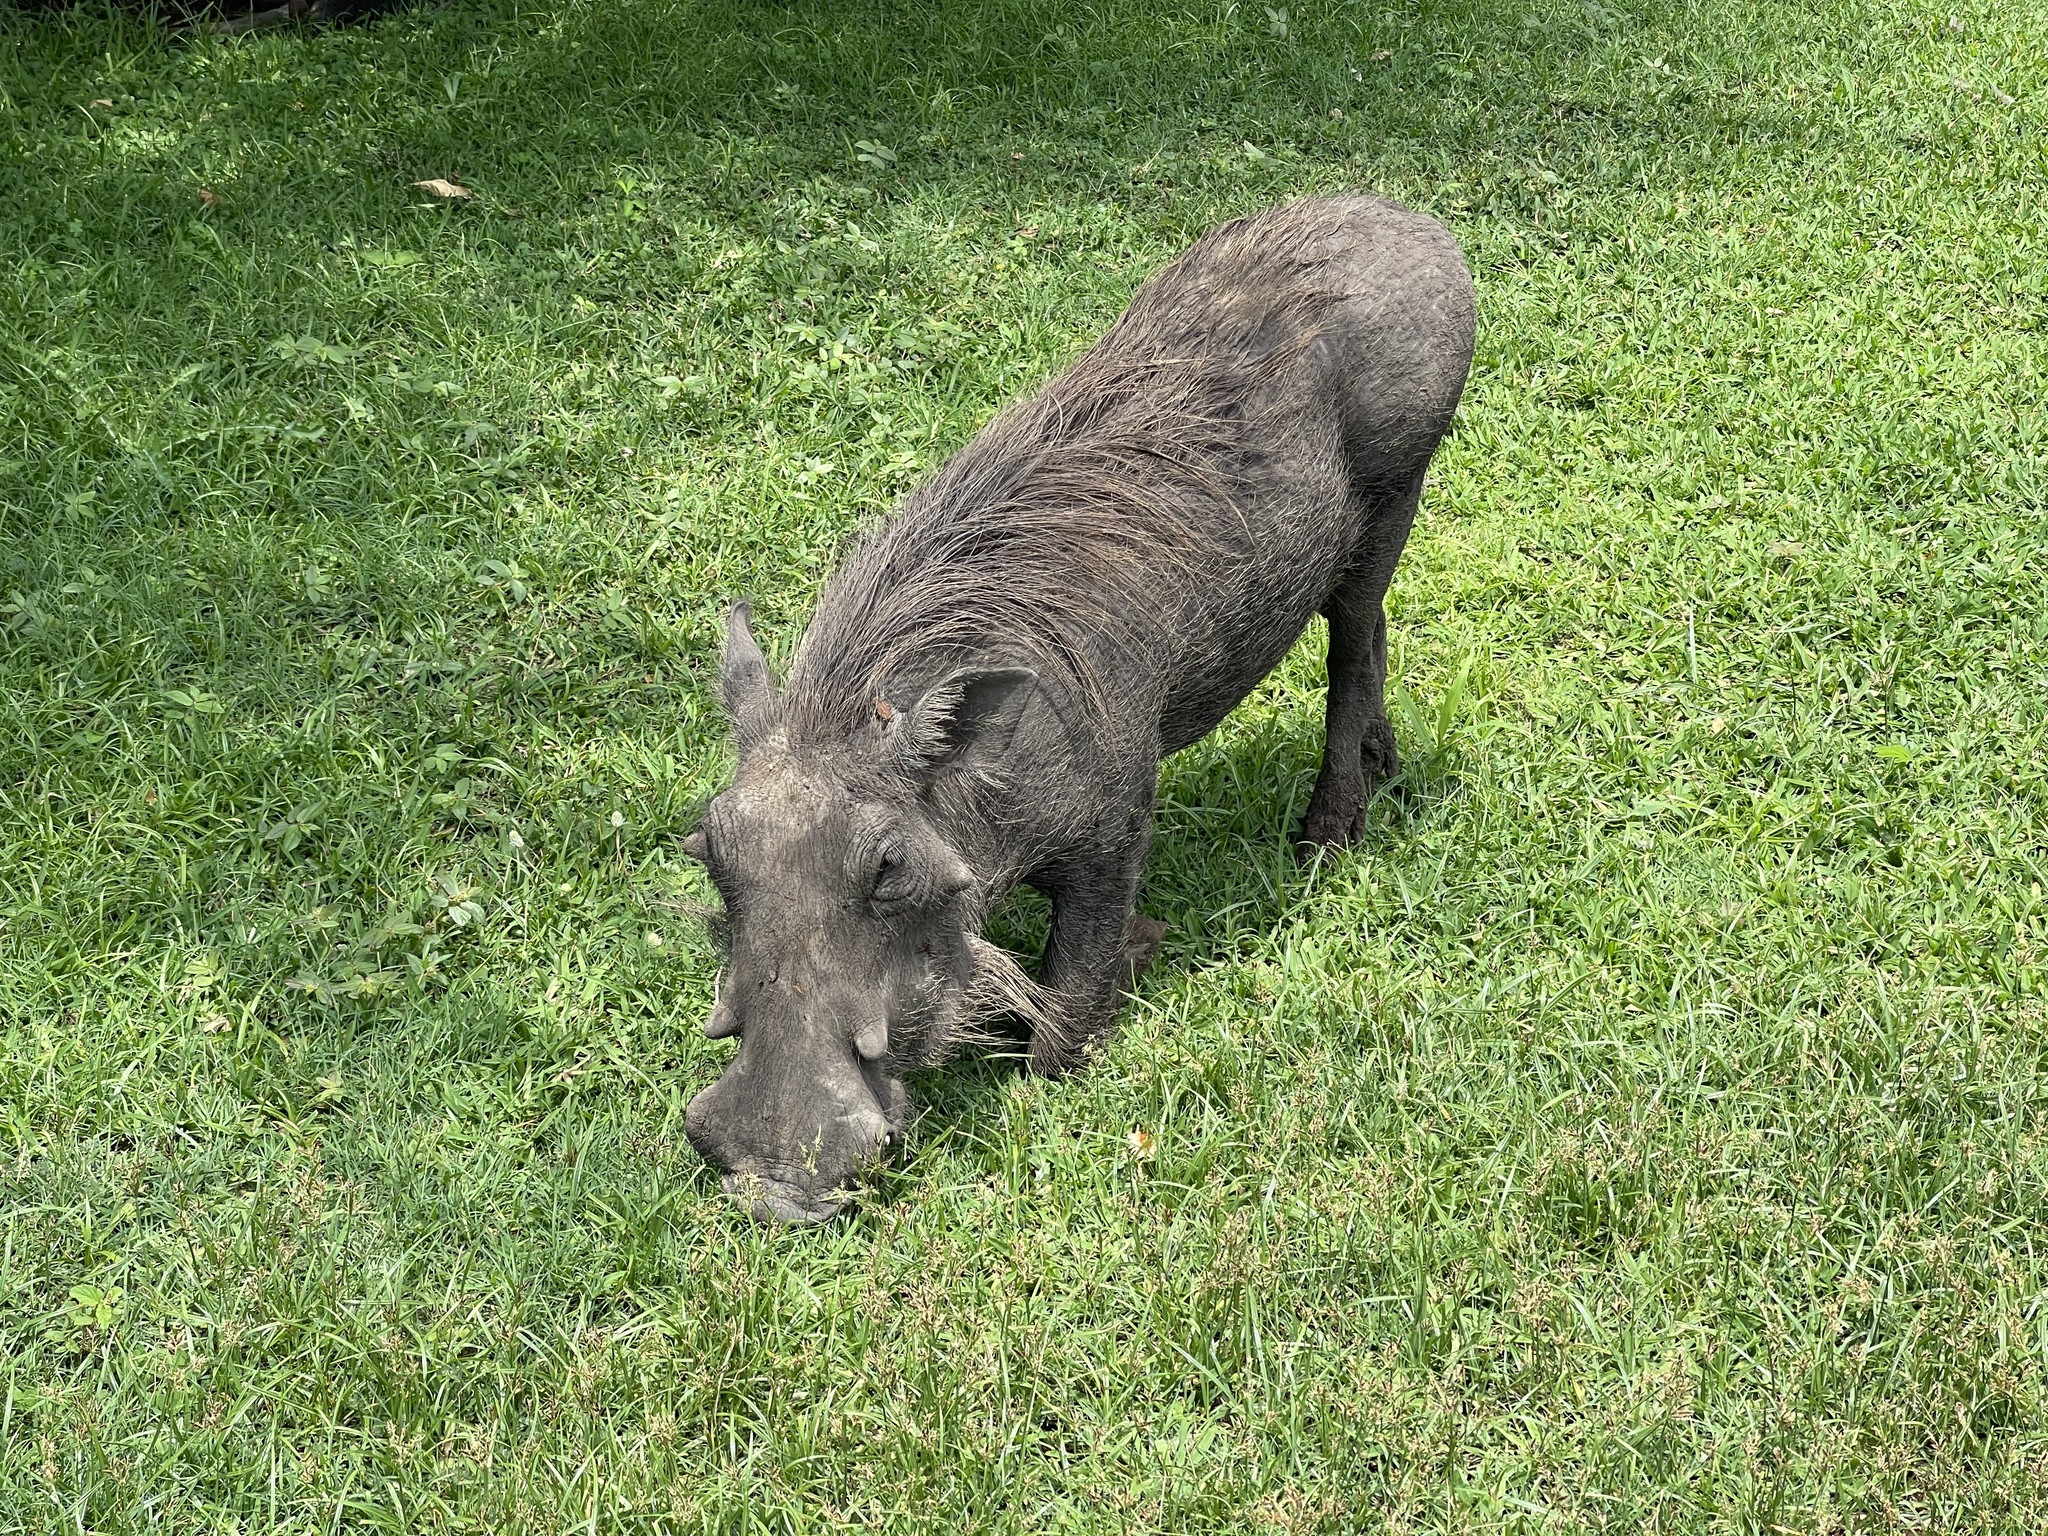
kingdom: Animalia
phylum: Chordata
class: Mammalia
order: Artiodactyla
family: Suidae
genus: Phacochoerus
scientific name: Phacochoerus africanus
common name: Common warthog
